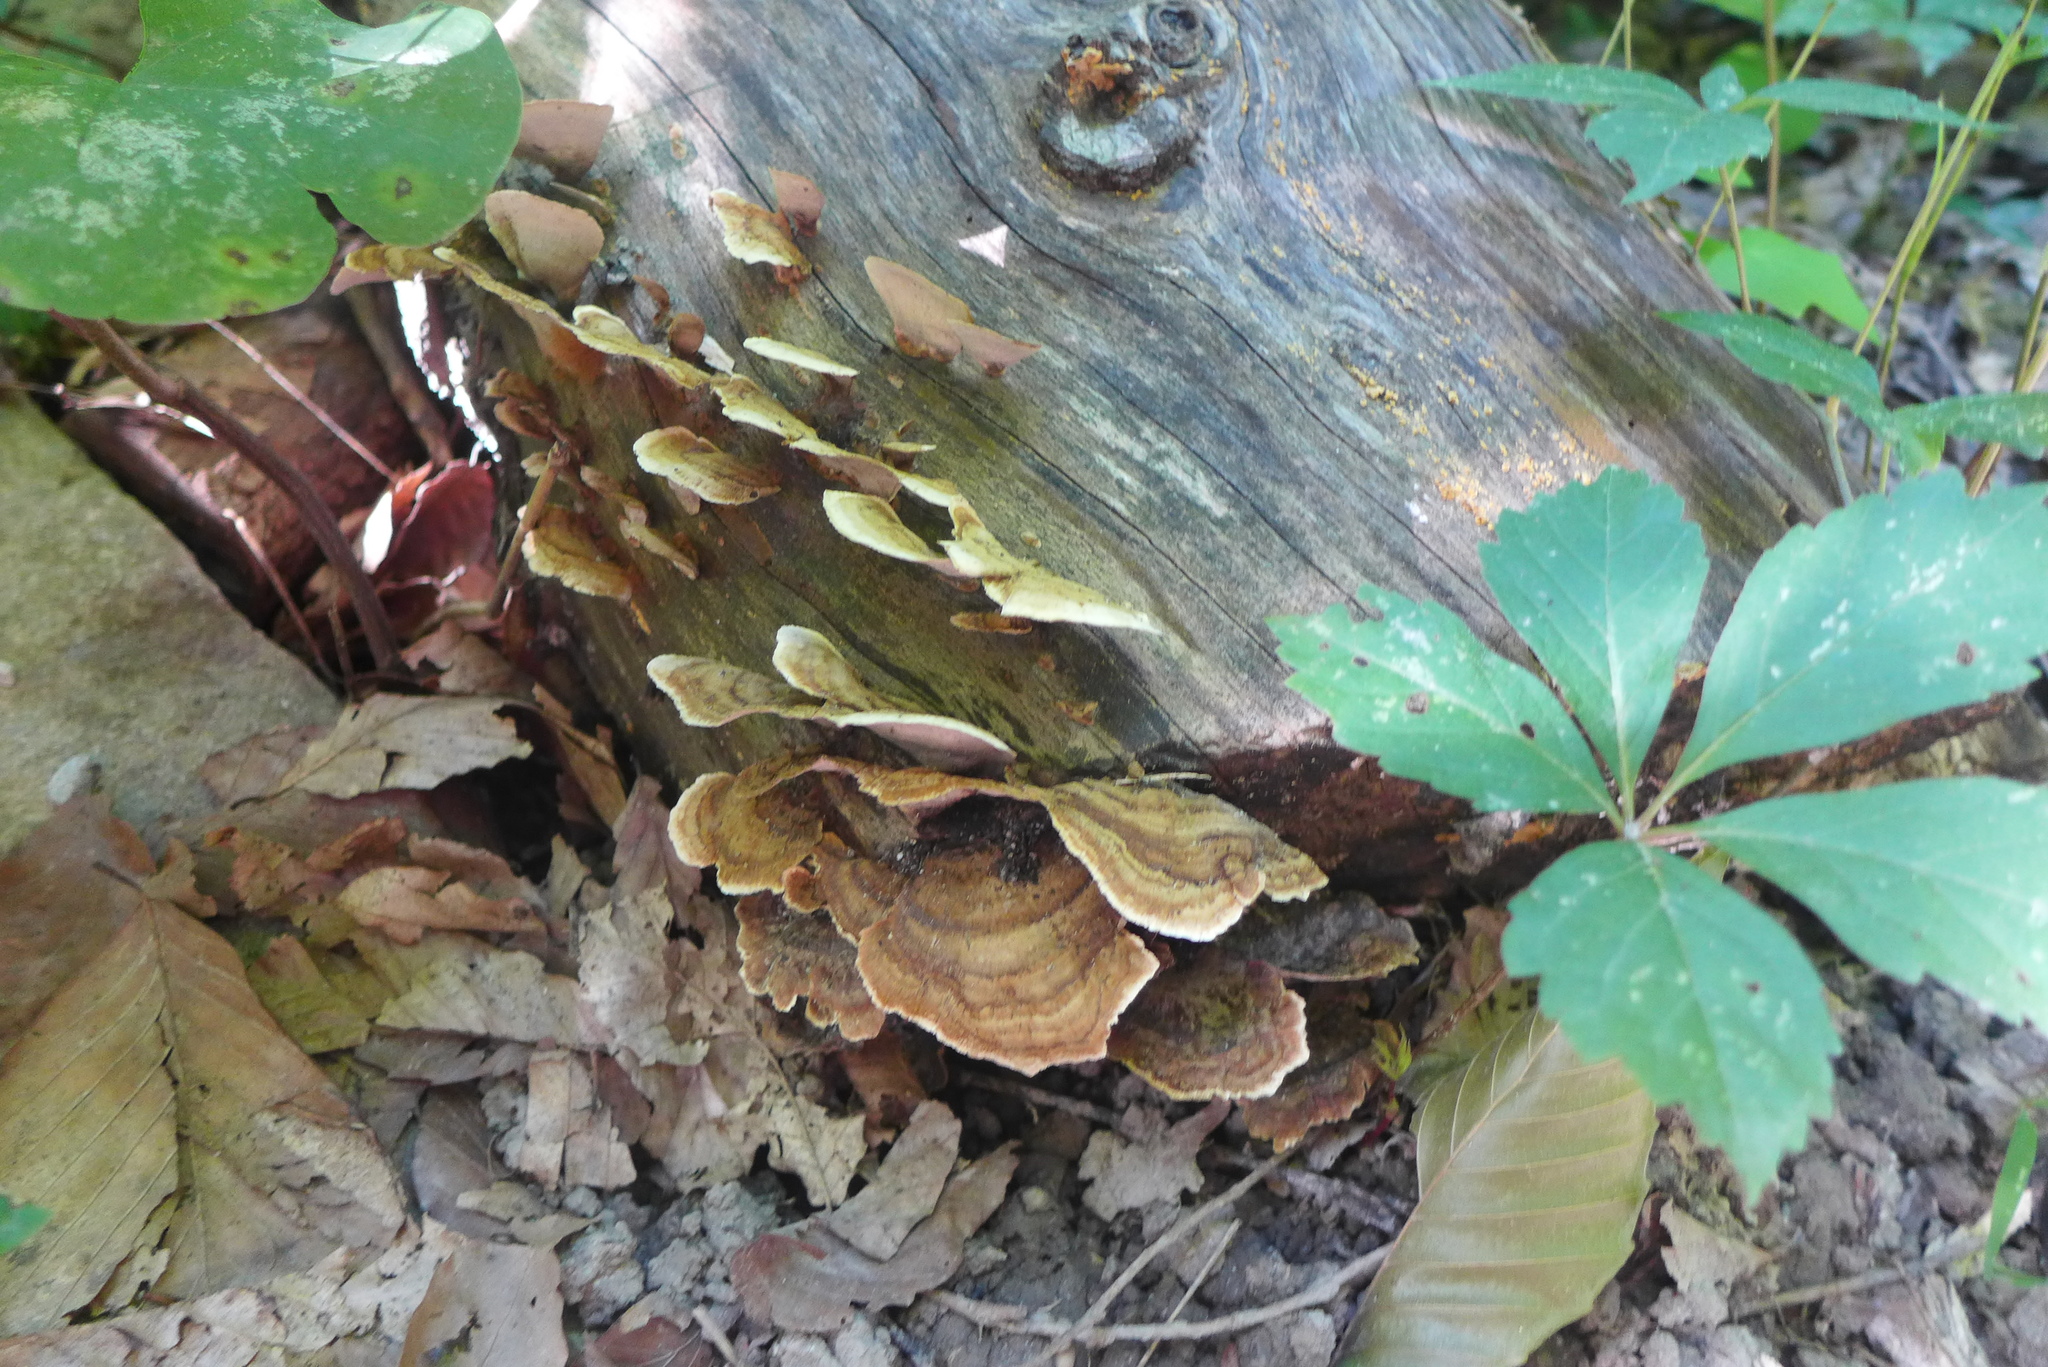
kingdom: Fungi
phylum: Basidiomycota
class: Agaricomycetes
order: Polyporales
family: Polyporaceae
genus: Trametes
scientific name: Trametes versicolor
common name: Turkeytail
